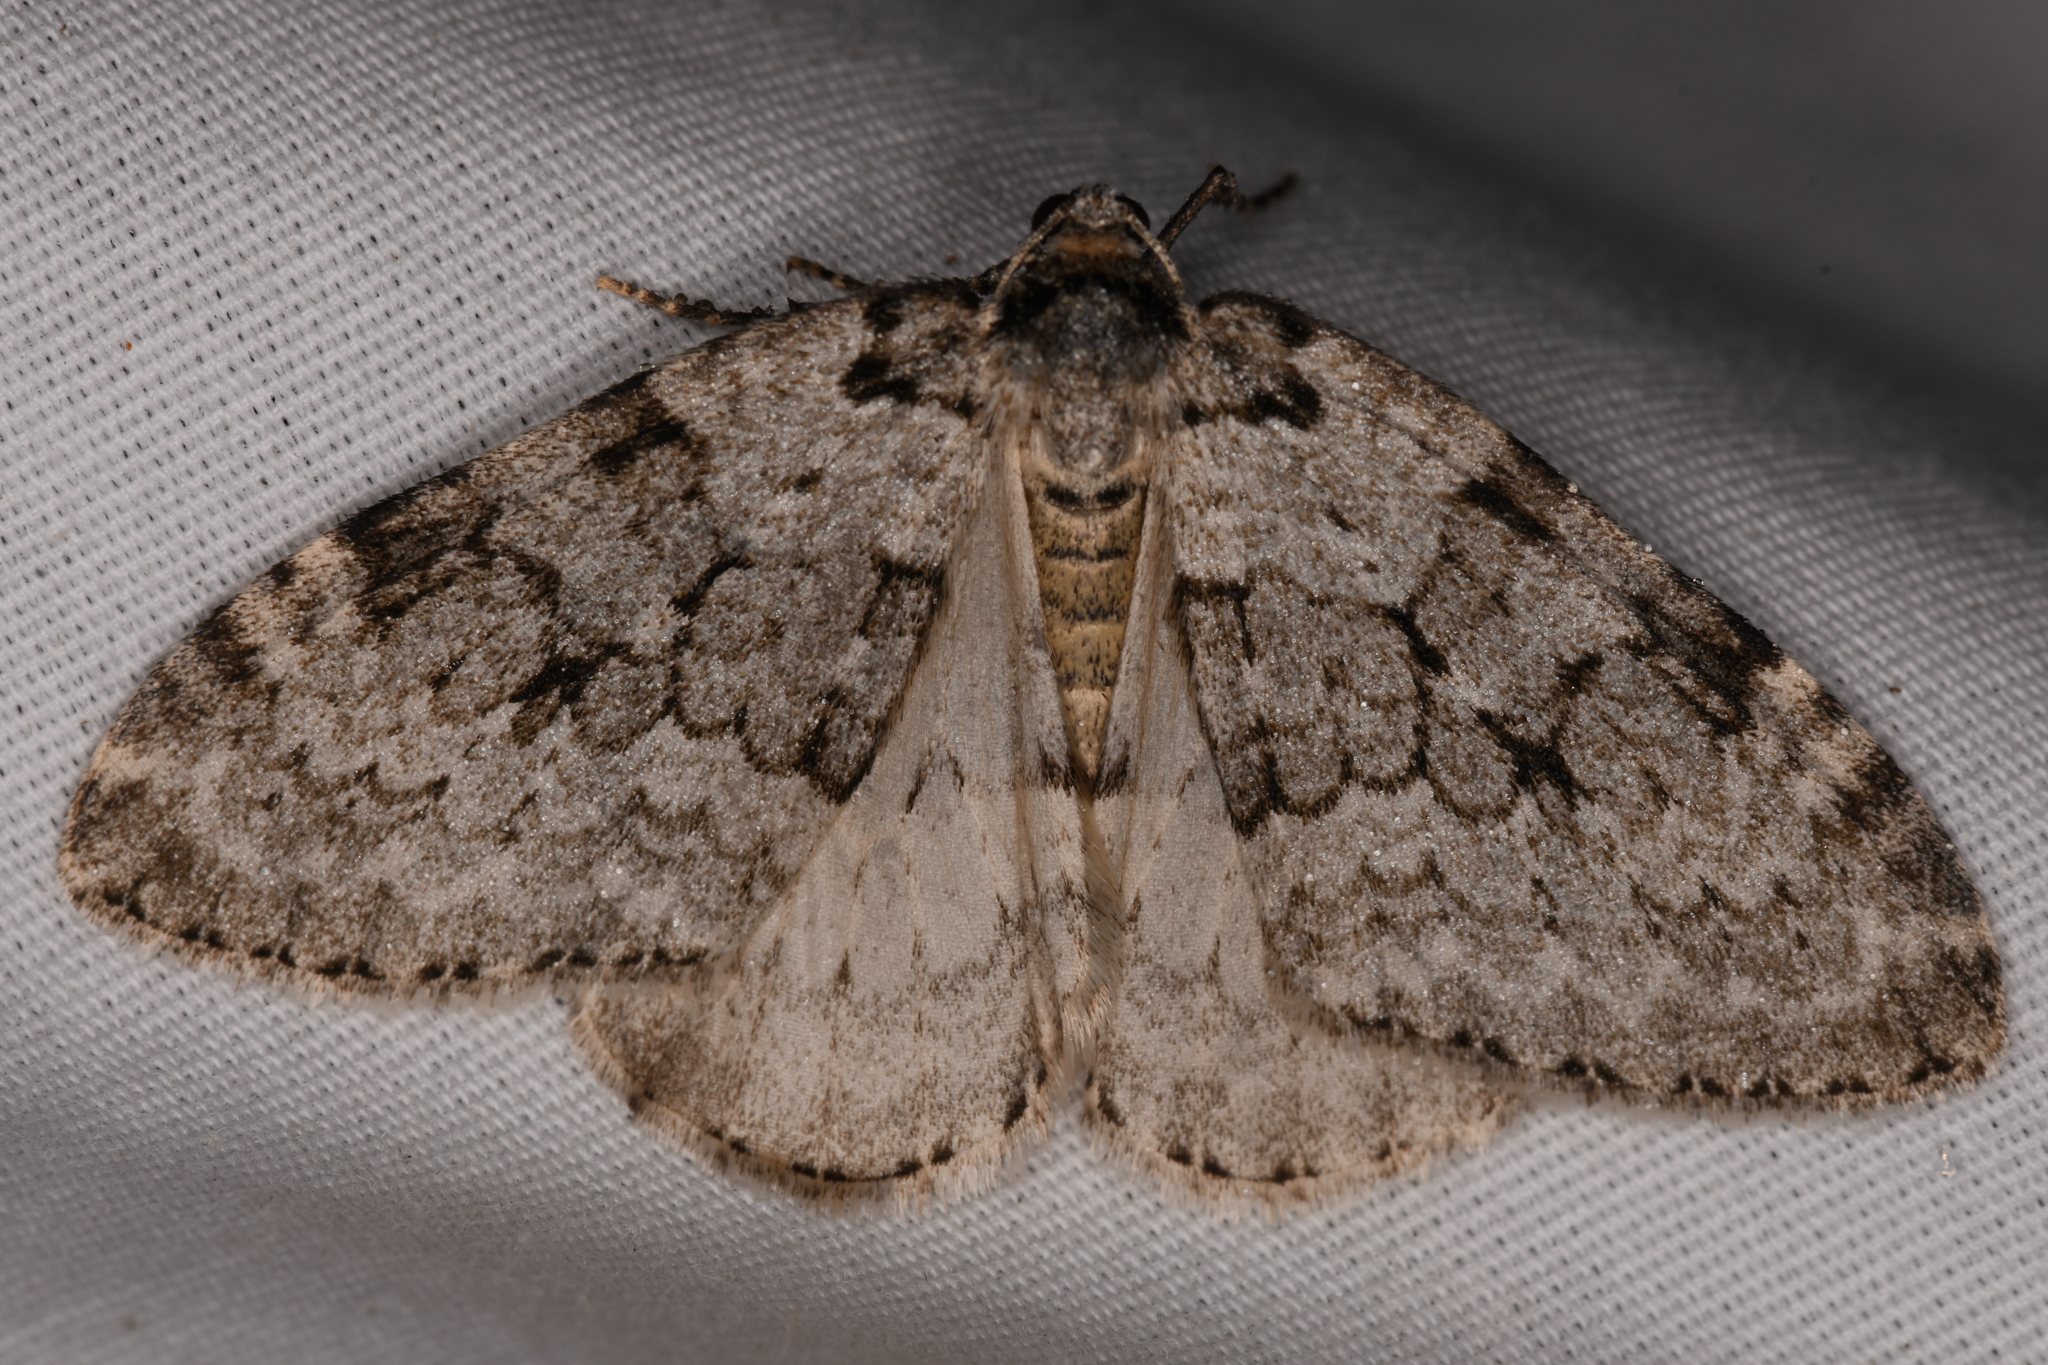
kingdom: Animalia
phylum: Arthropoda
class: Insecta
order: Lepidoptera
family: Geometridae
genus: Epirrita
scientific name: Epirrita autumnata
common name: Autumnal moth
